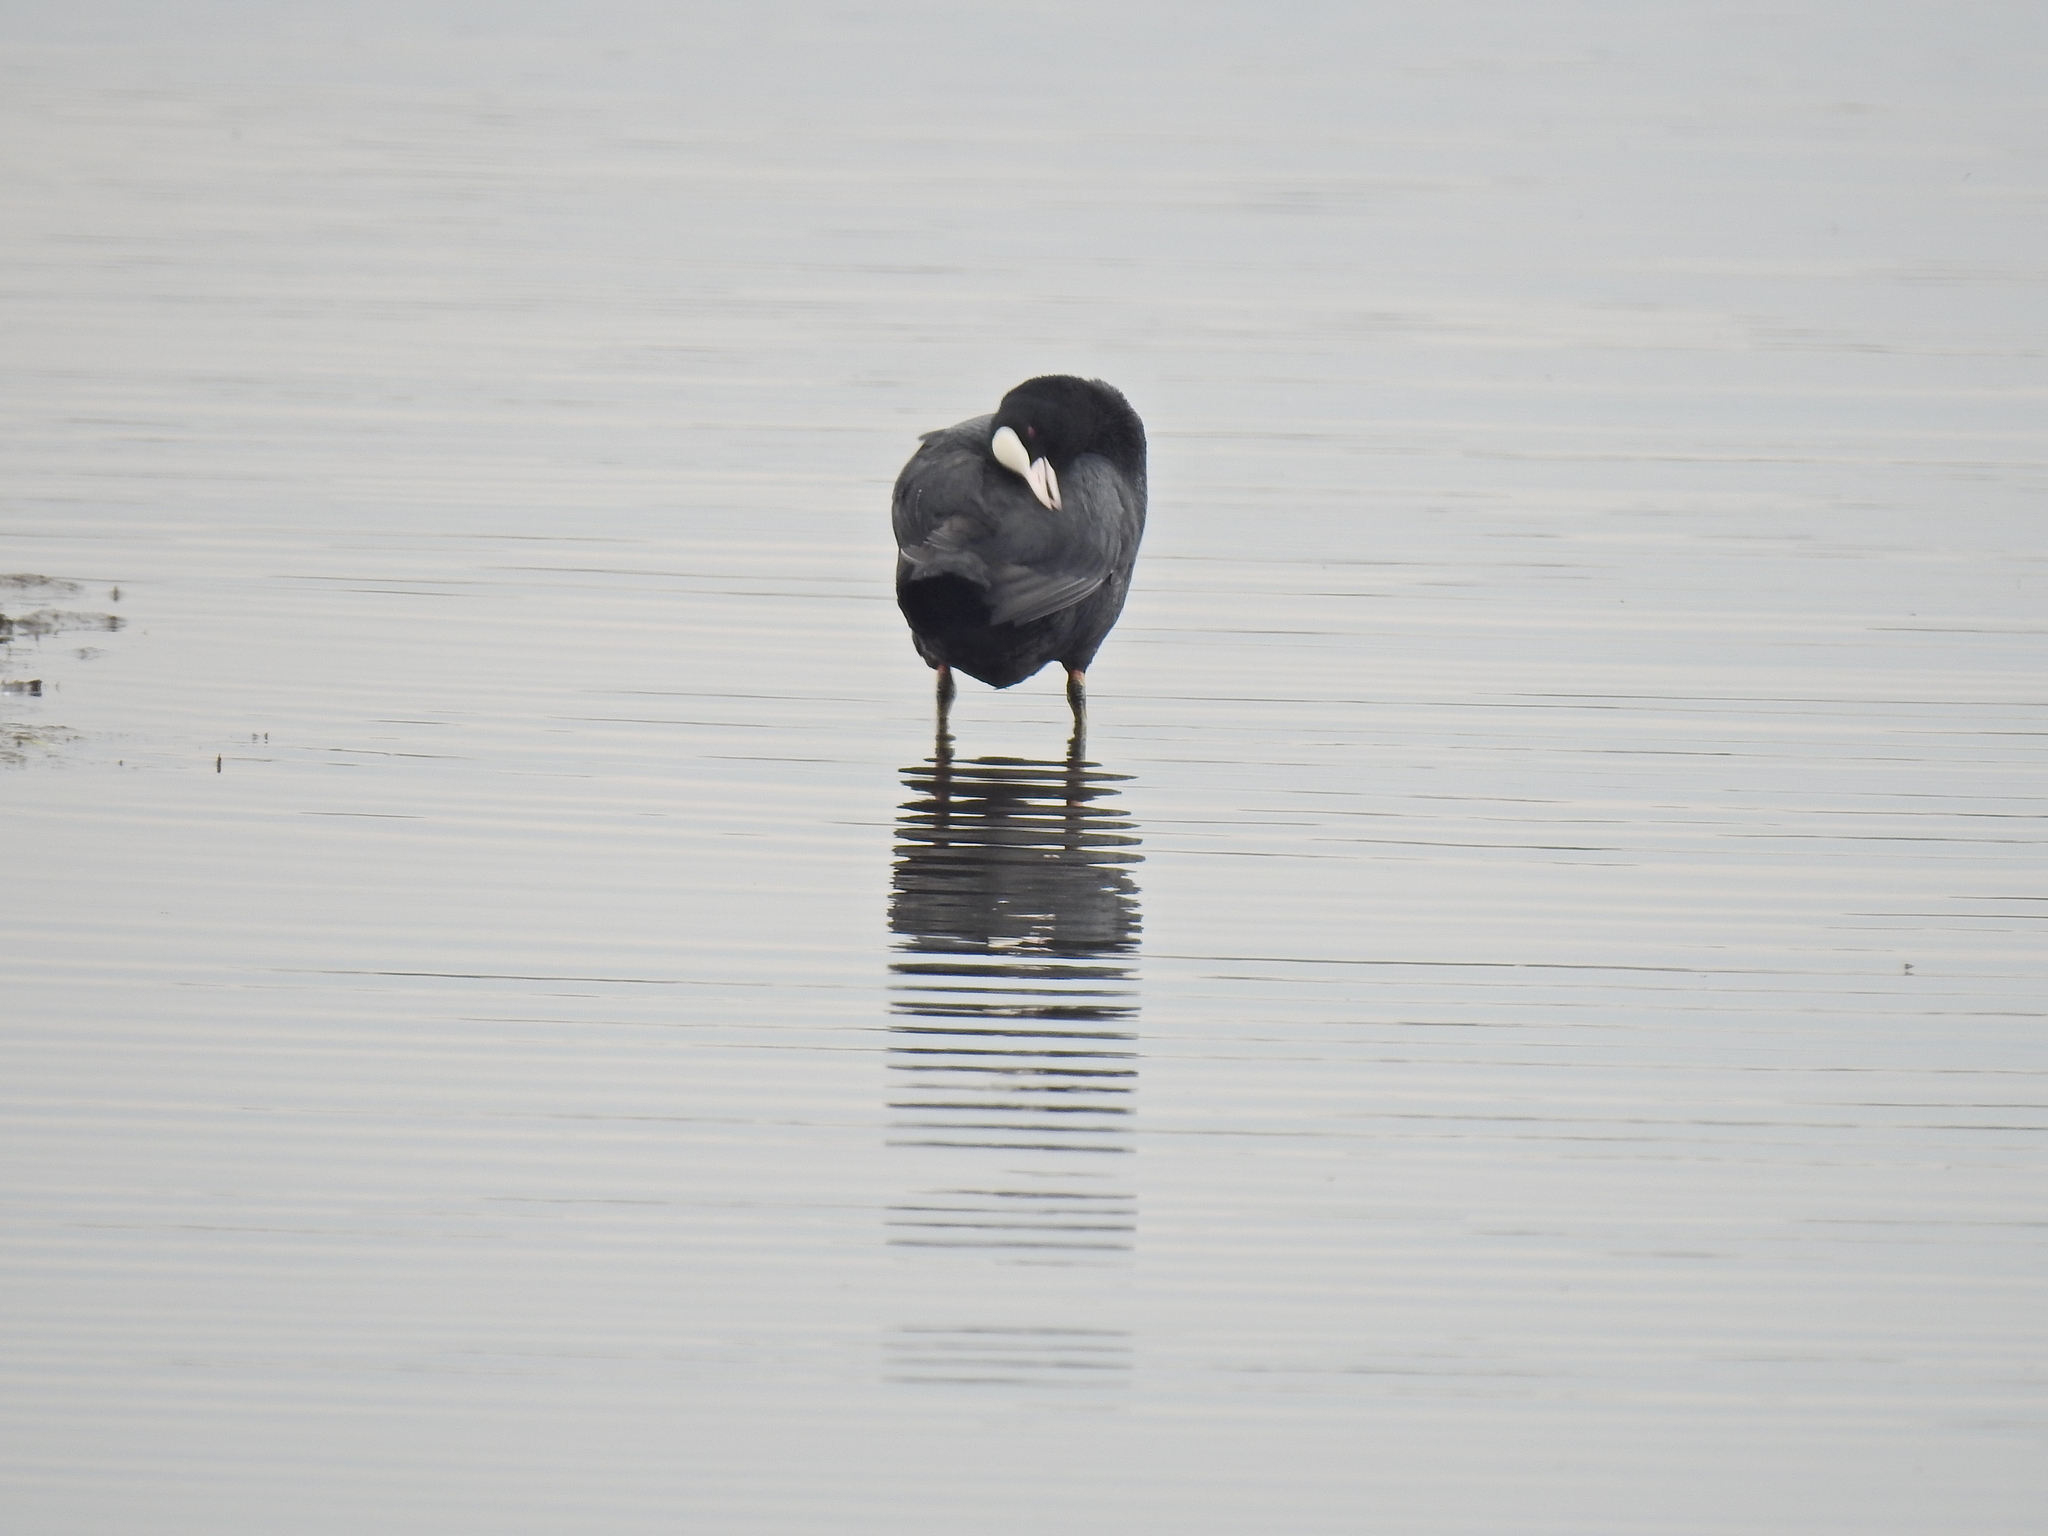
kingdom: Animalia
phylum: Chordata
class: Aves
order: Gruiformes
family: Rallidae
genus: Fulica
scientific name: Fulica atra
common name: Eurasian coot
